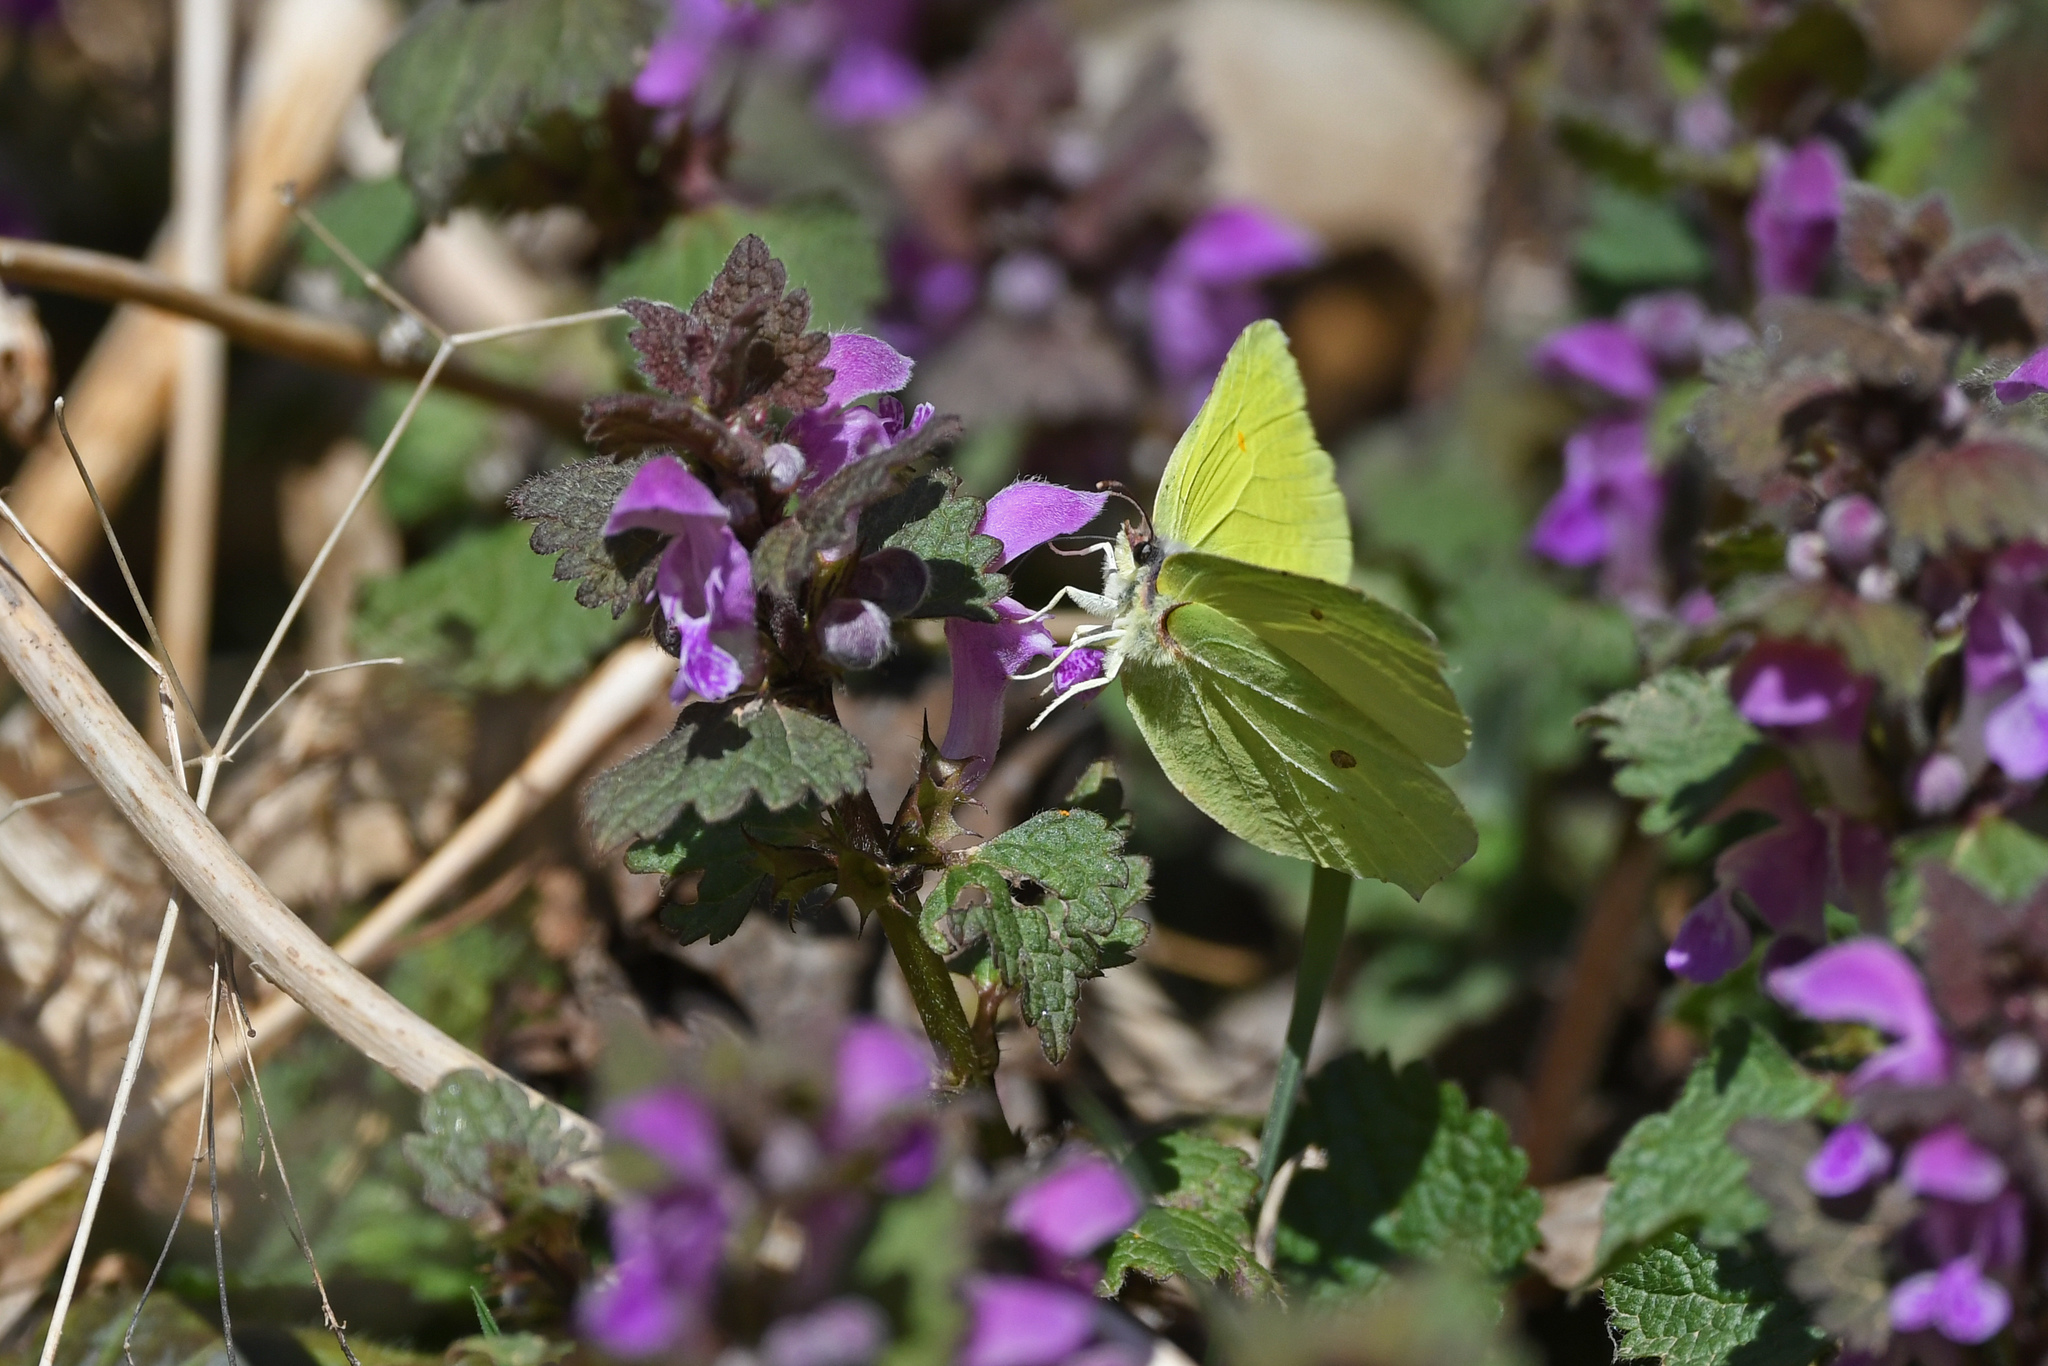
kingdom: Animalia
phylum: Arthropoda
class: Insecta
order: Lepidoptera
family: Pieridae
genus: Gonepteryx
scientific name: Gonepteryx rhamni
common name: Brimstone
